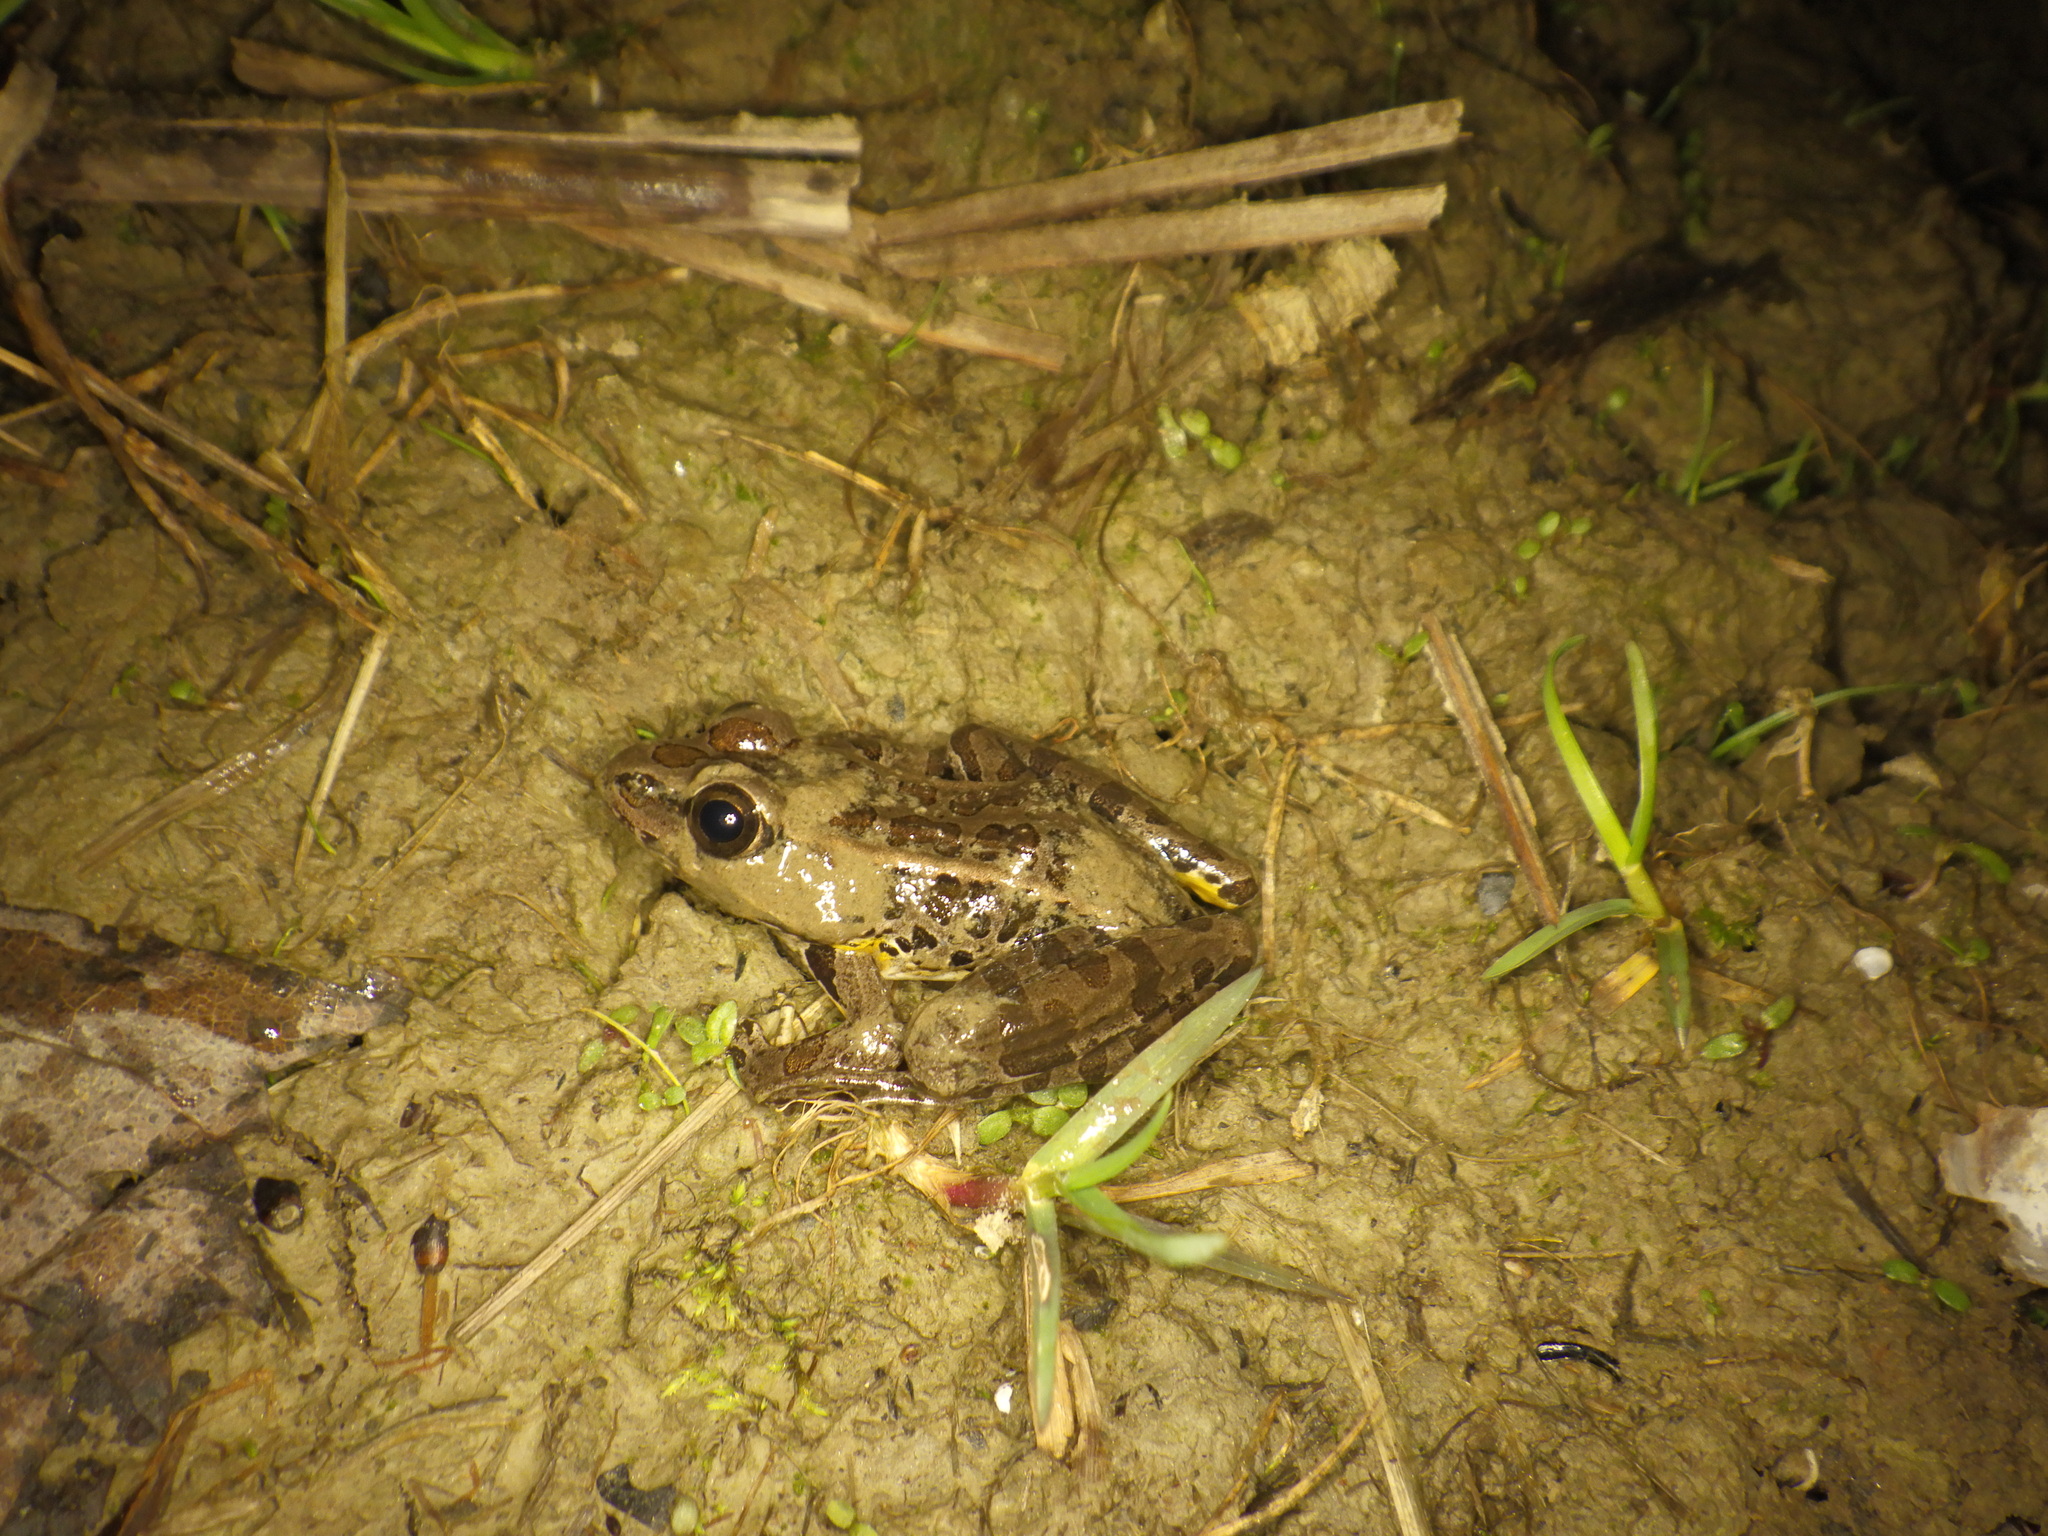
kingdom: Animalia
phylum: Chordata
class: Amphibia
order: Anura
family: Ranidae
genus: Lithobates
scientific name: Lithobates palustris
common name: Pickerel frog
